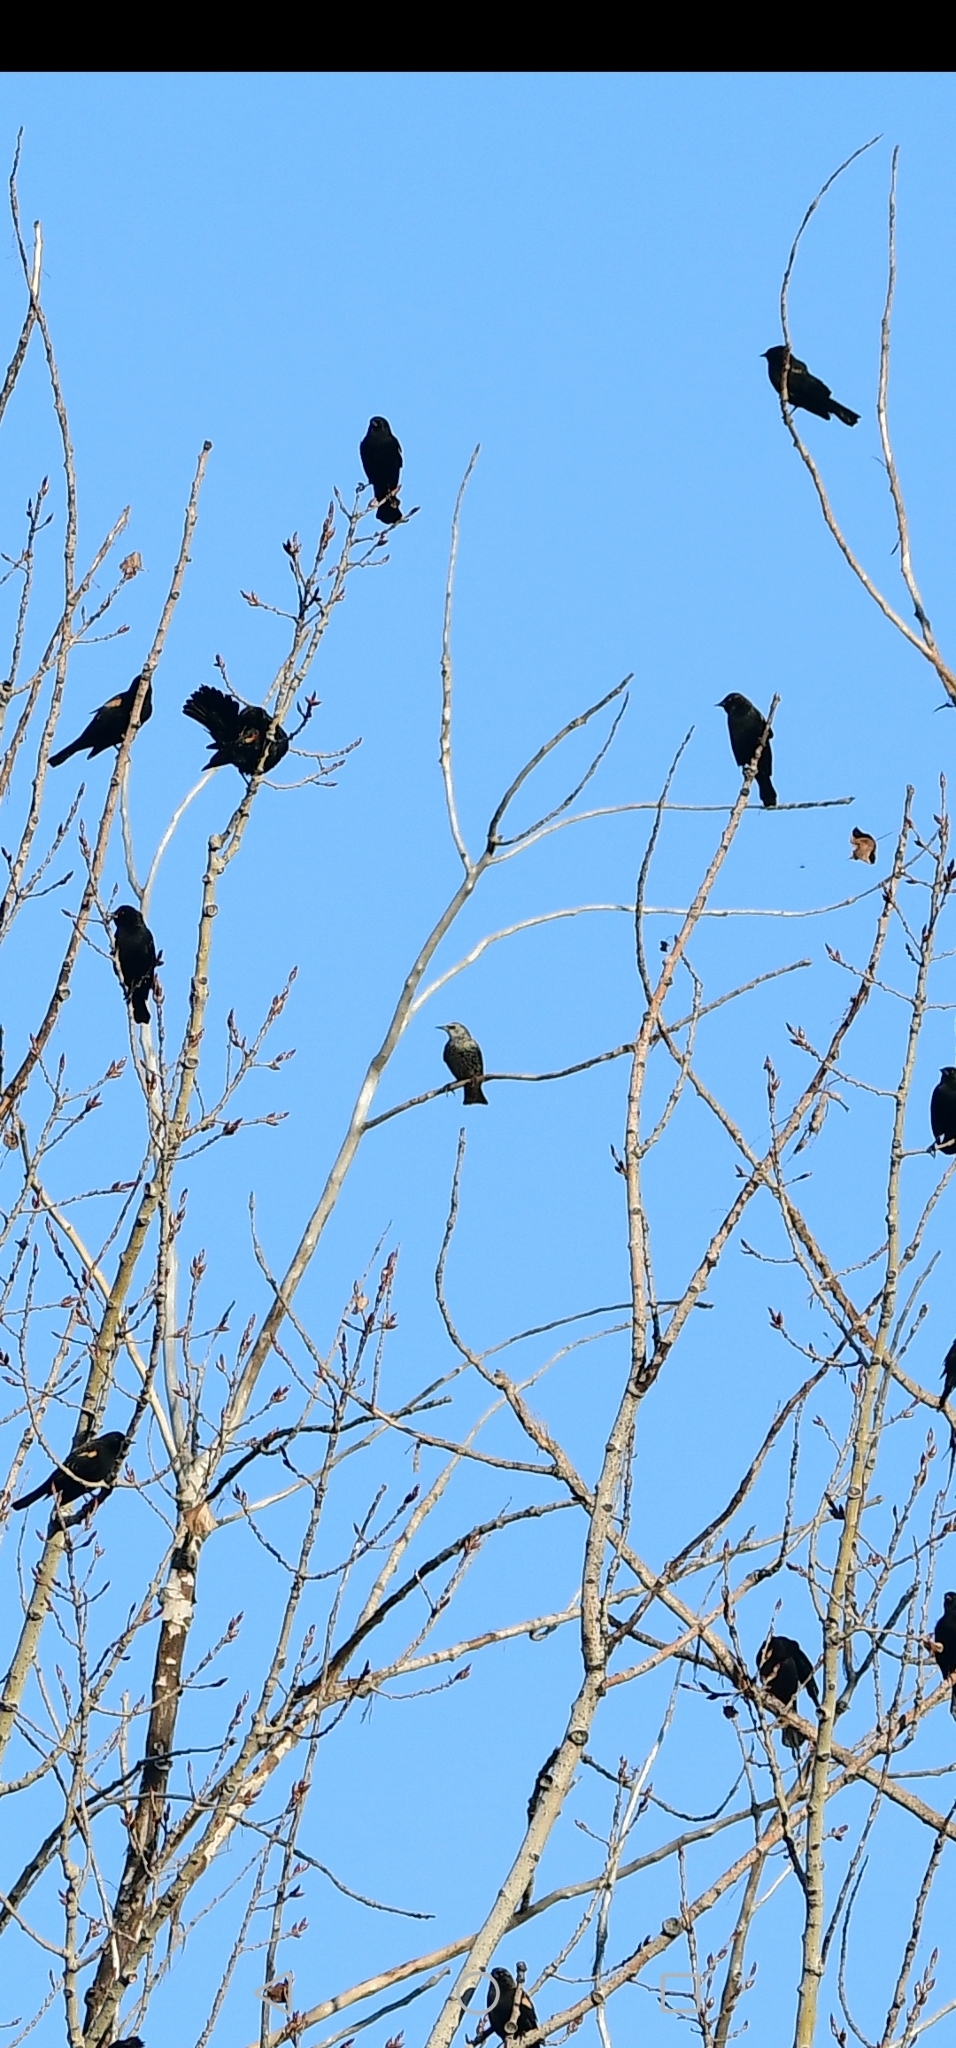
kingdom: Animalia
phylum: Chordata
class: Aves
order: Passeriformes
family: Sturnidae
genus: Sturnus
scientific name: Sturnus vulgaris
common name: Common starling
